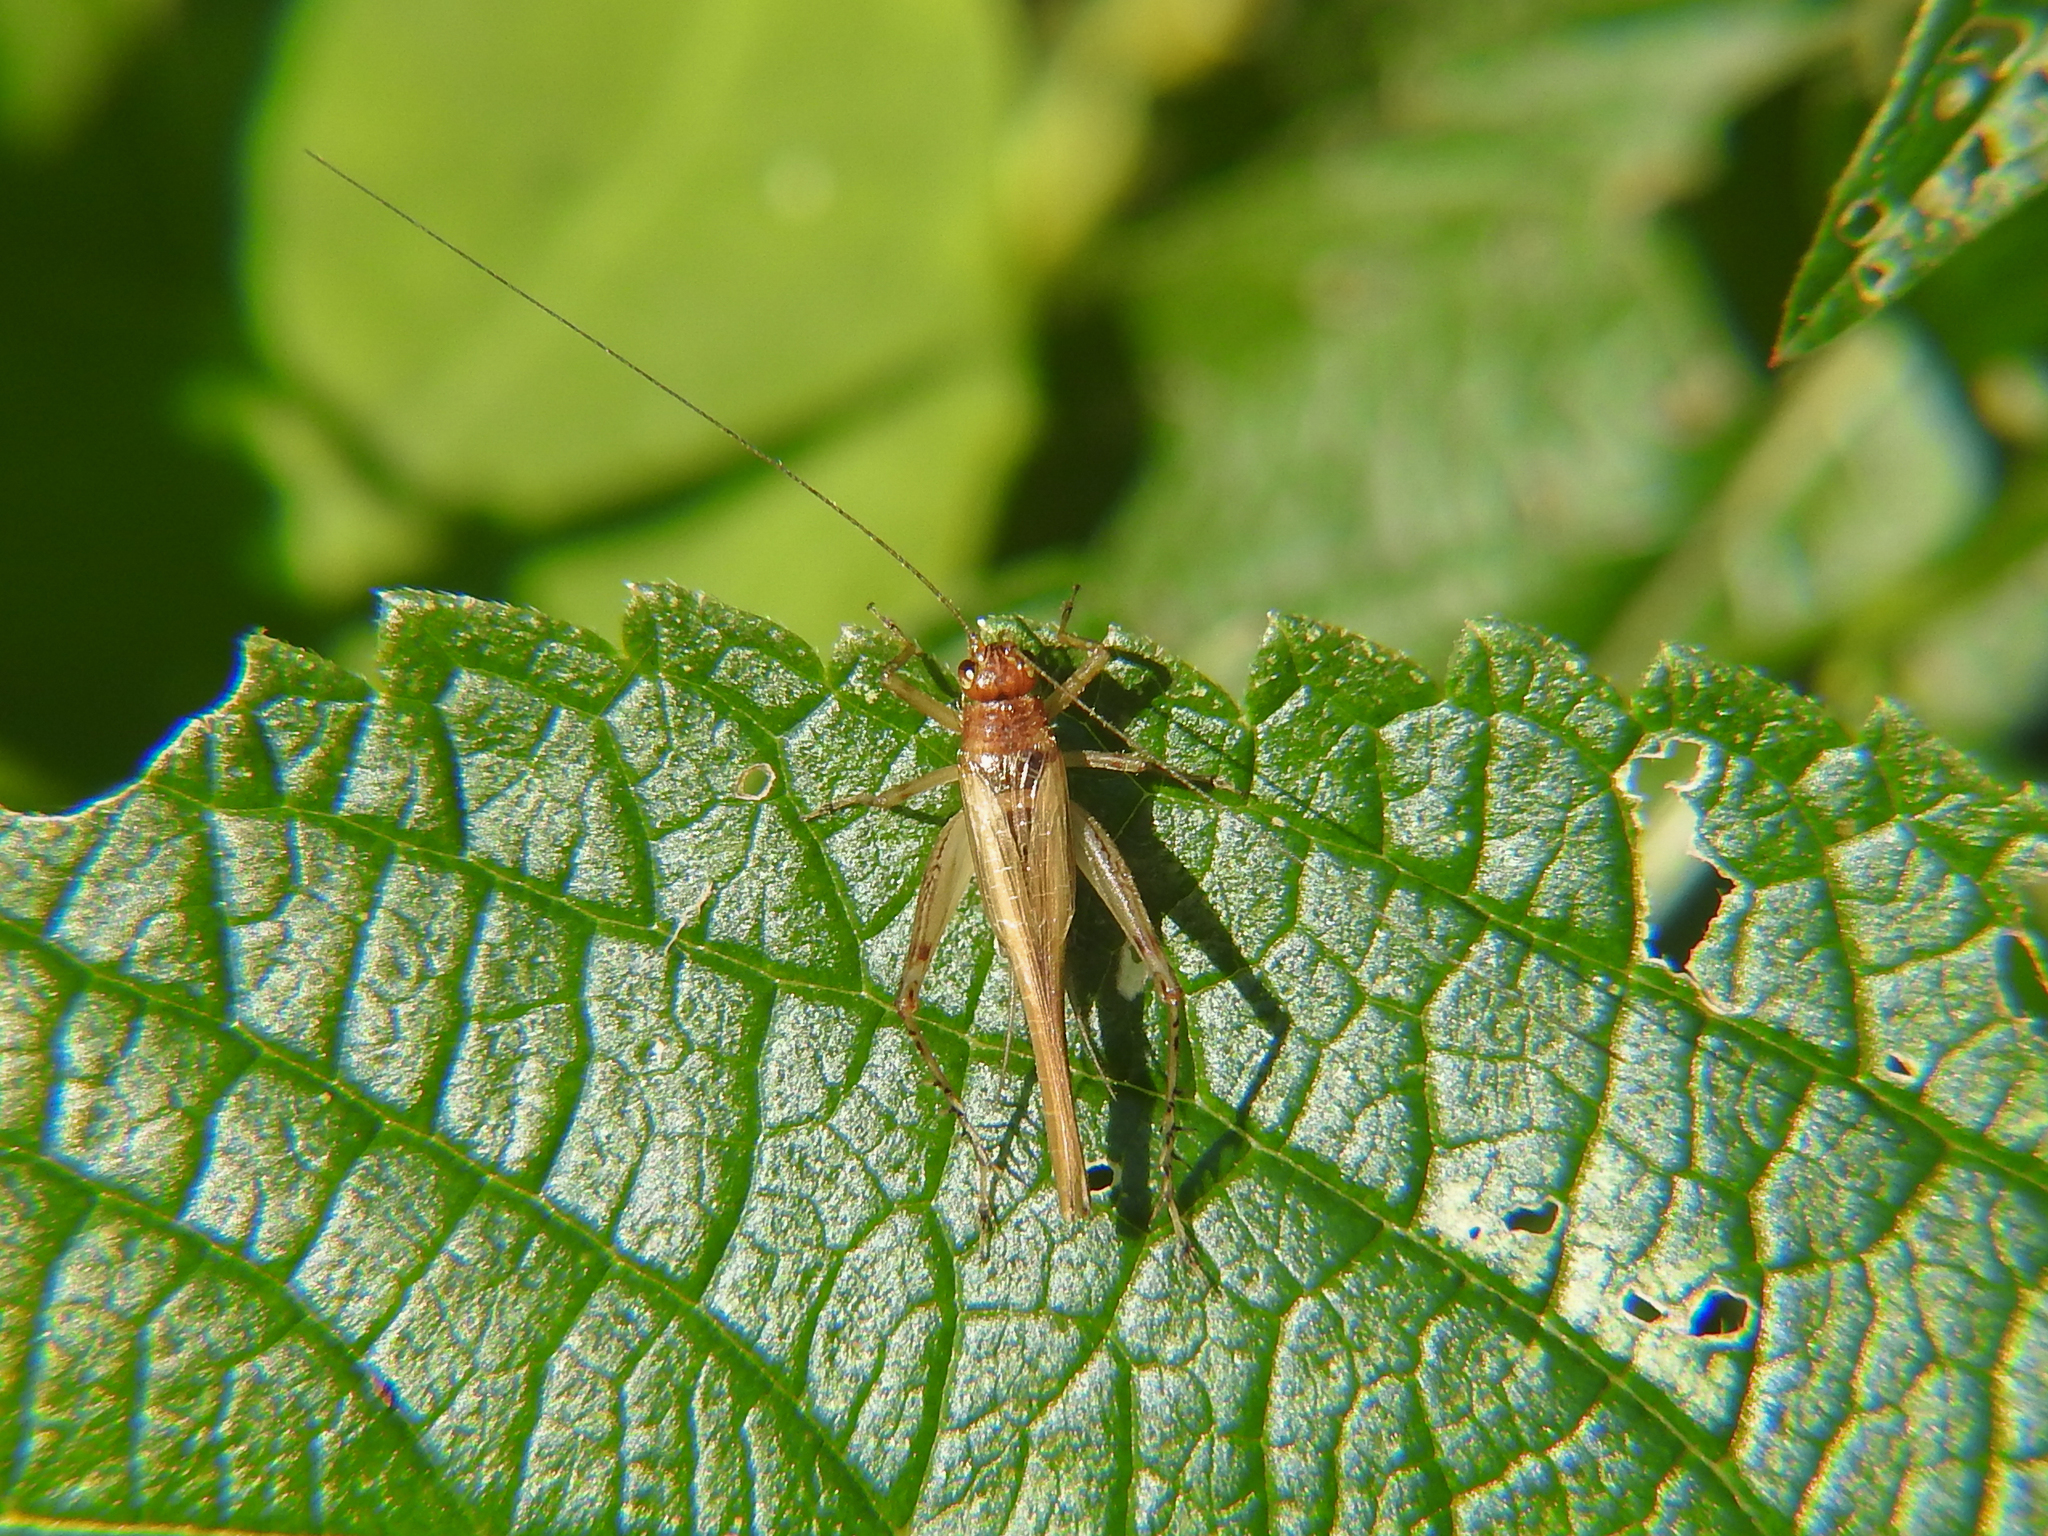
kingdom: Animalia
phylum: Arthropoda
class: Insecta
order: Orthoptera
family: Trigonidiidae
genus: Anaxipha
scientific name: Anaxipha exigua
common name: Say's bush cricket
